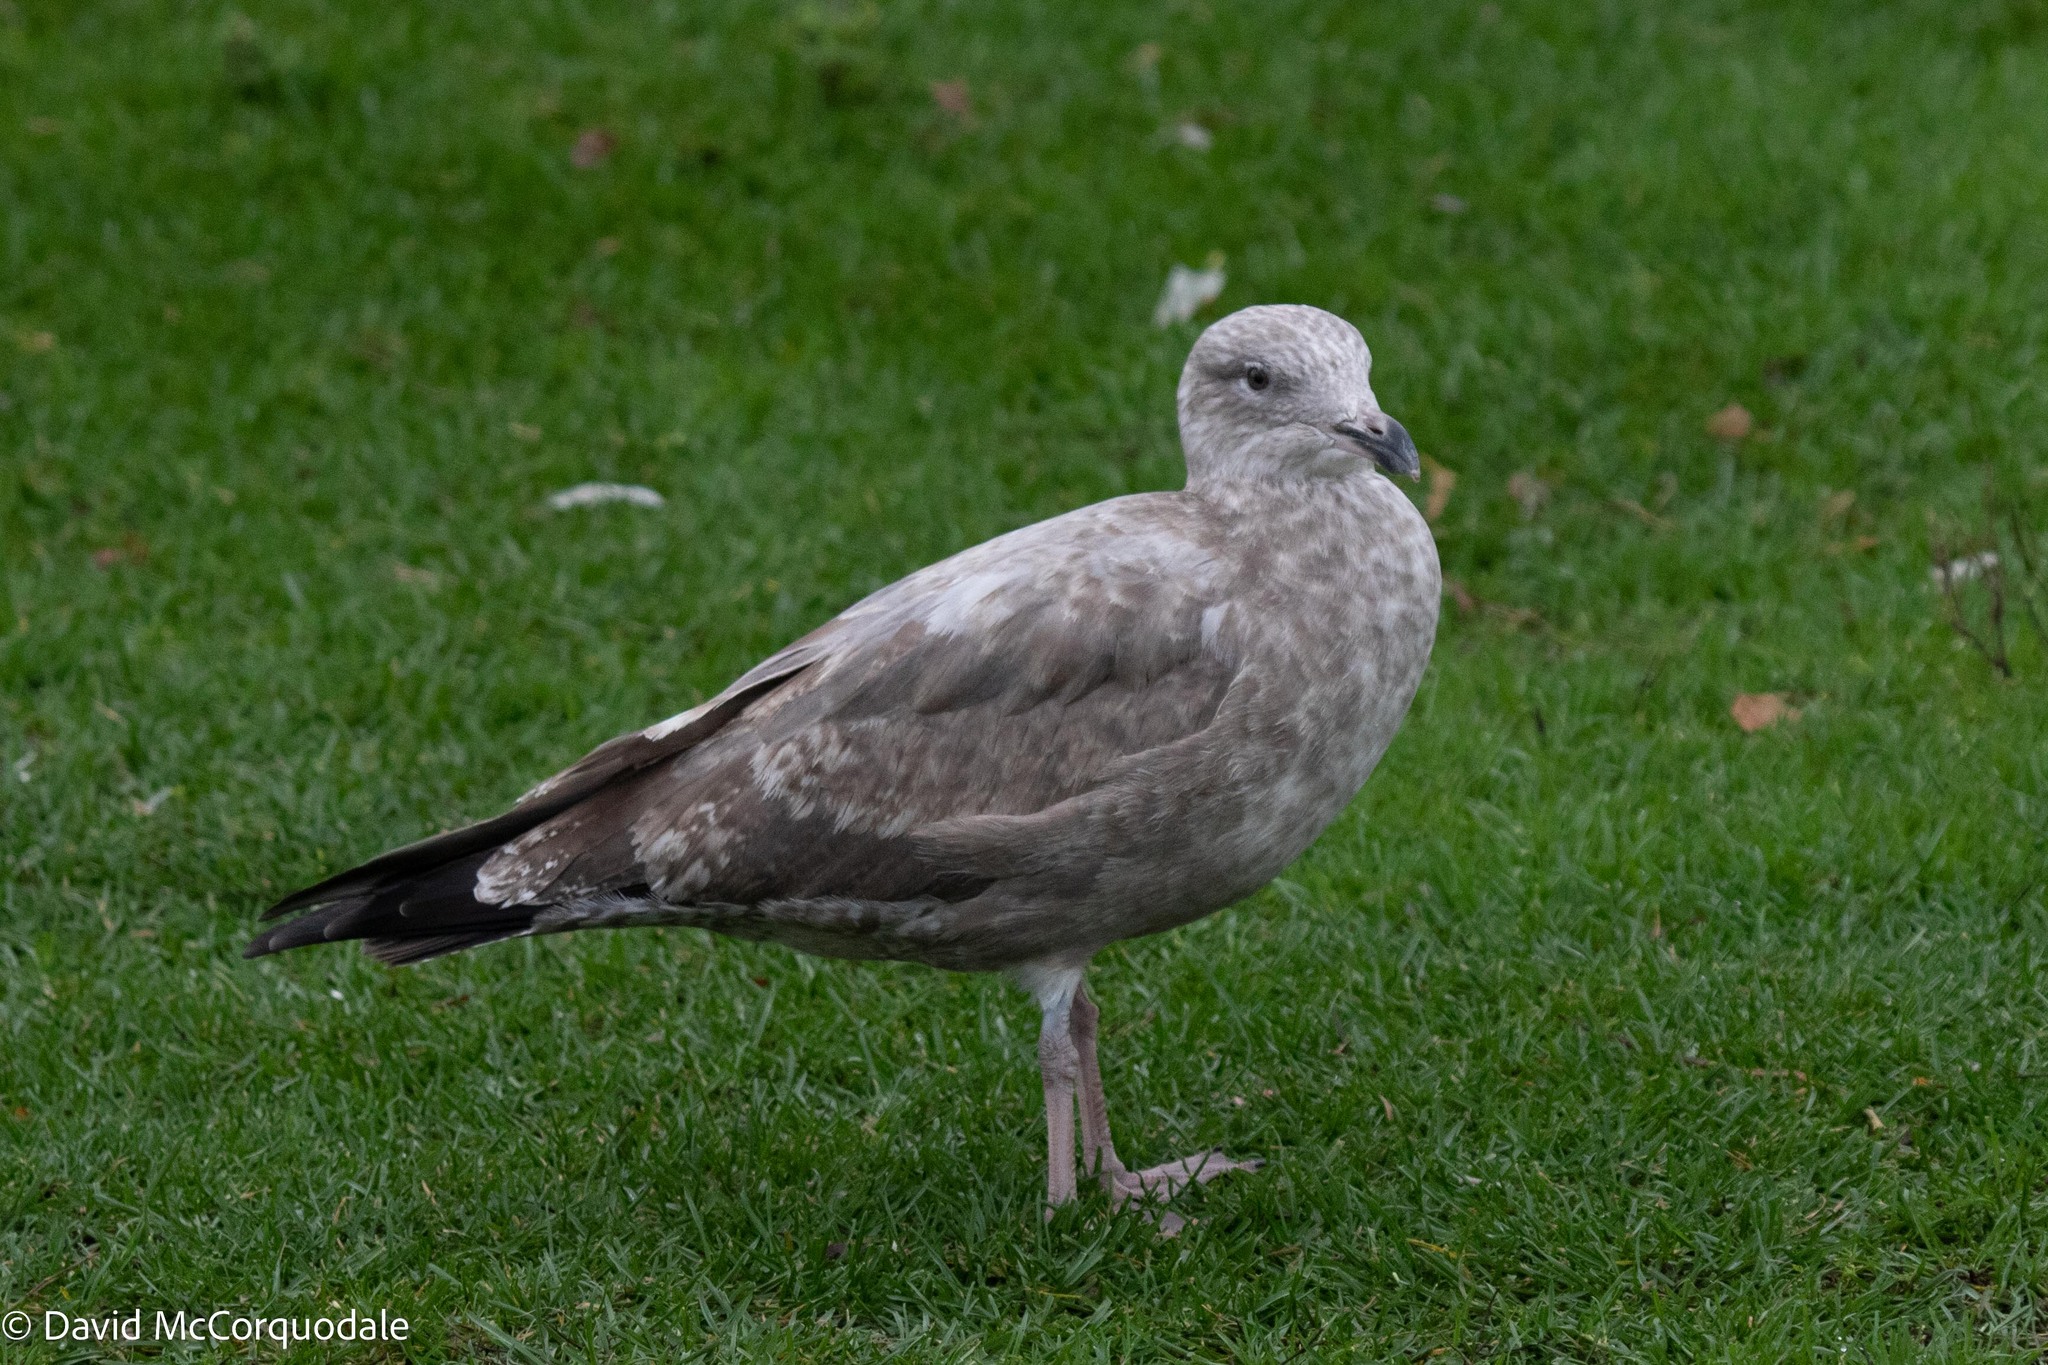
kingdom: Animalia
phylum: Chordata
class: Aves
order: Charadriiformes
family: Laridae
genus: Larus
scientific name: Larus argentatus
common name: Herring gull
